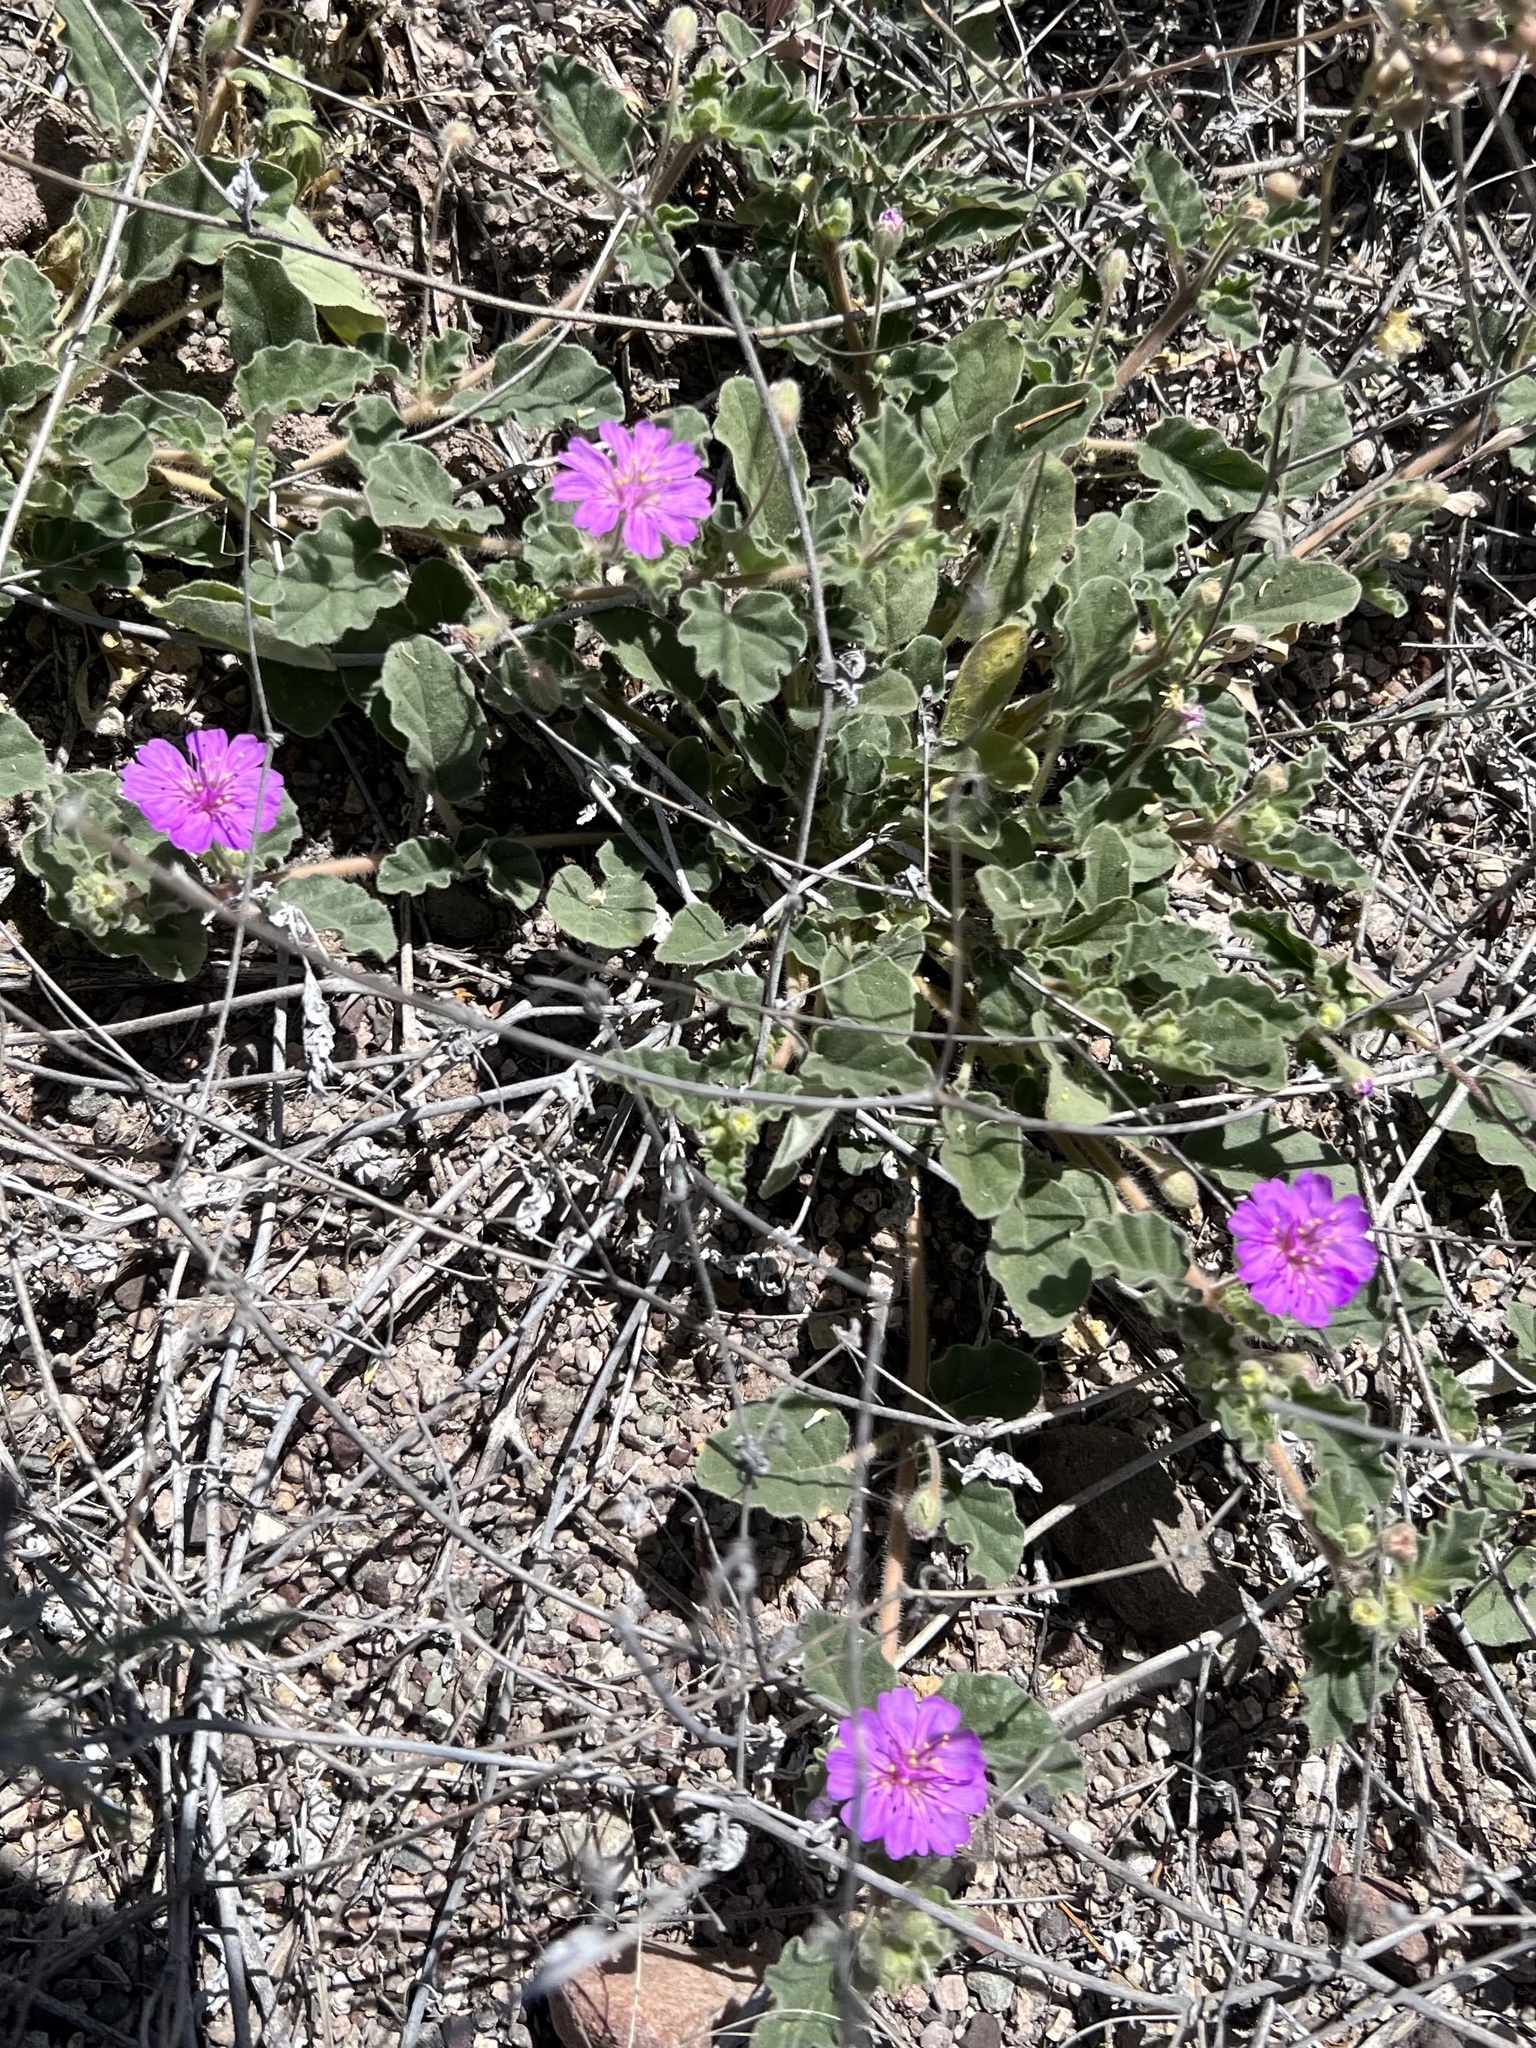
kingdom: Plantae
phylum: Tracheophyta
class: Magnoliopsida
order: Caryophyllales
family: Nyctaginaceae
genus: Allionia
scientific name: Allionia incarnata
